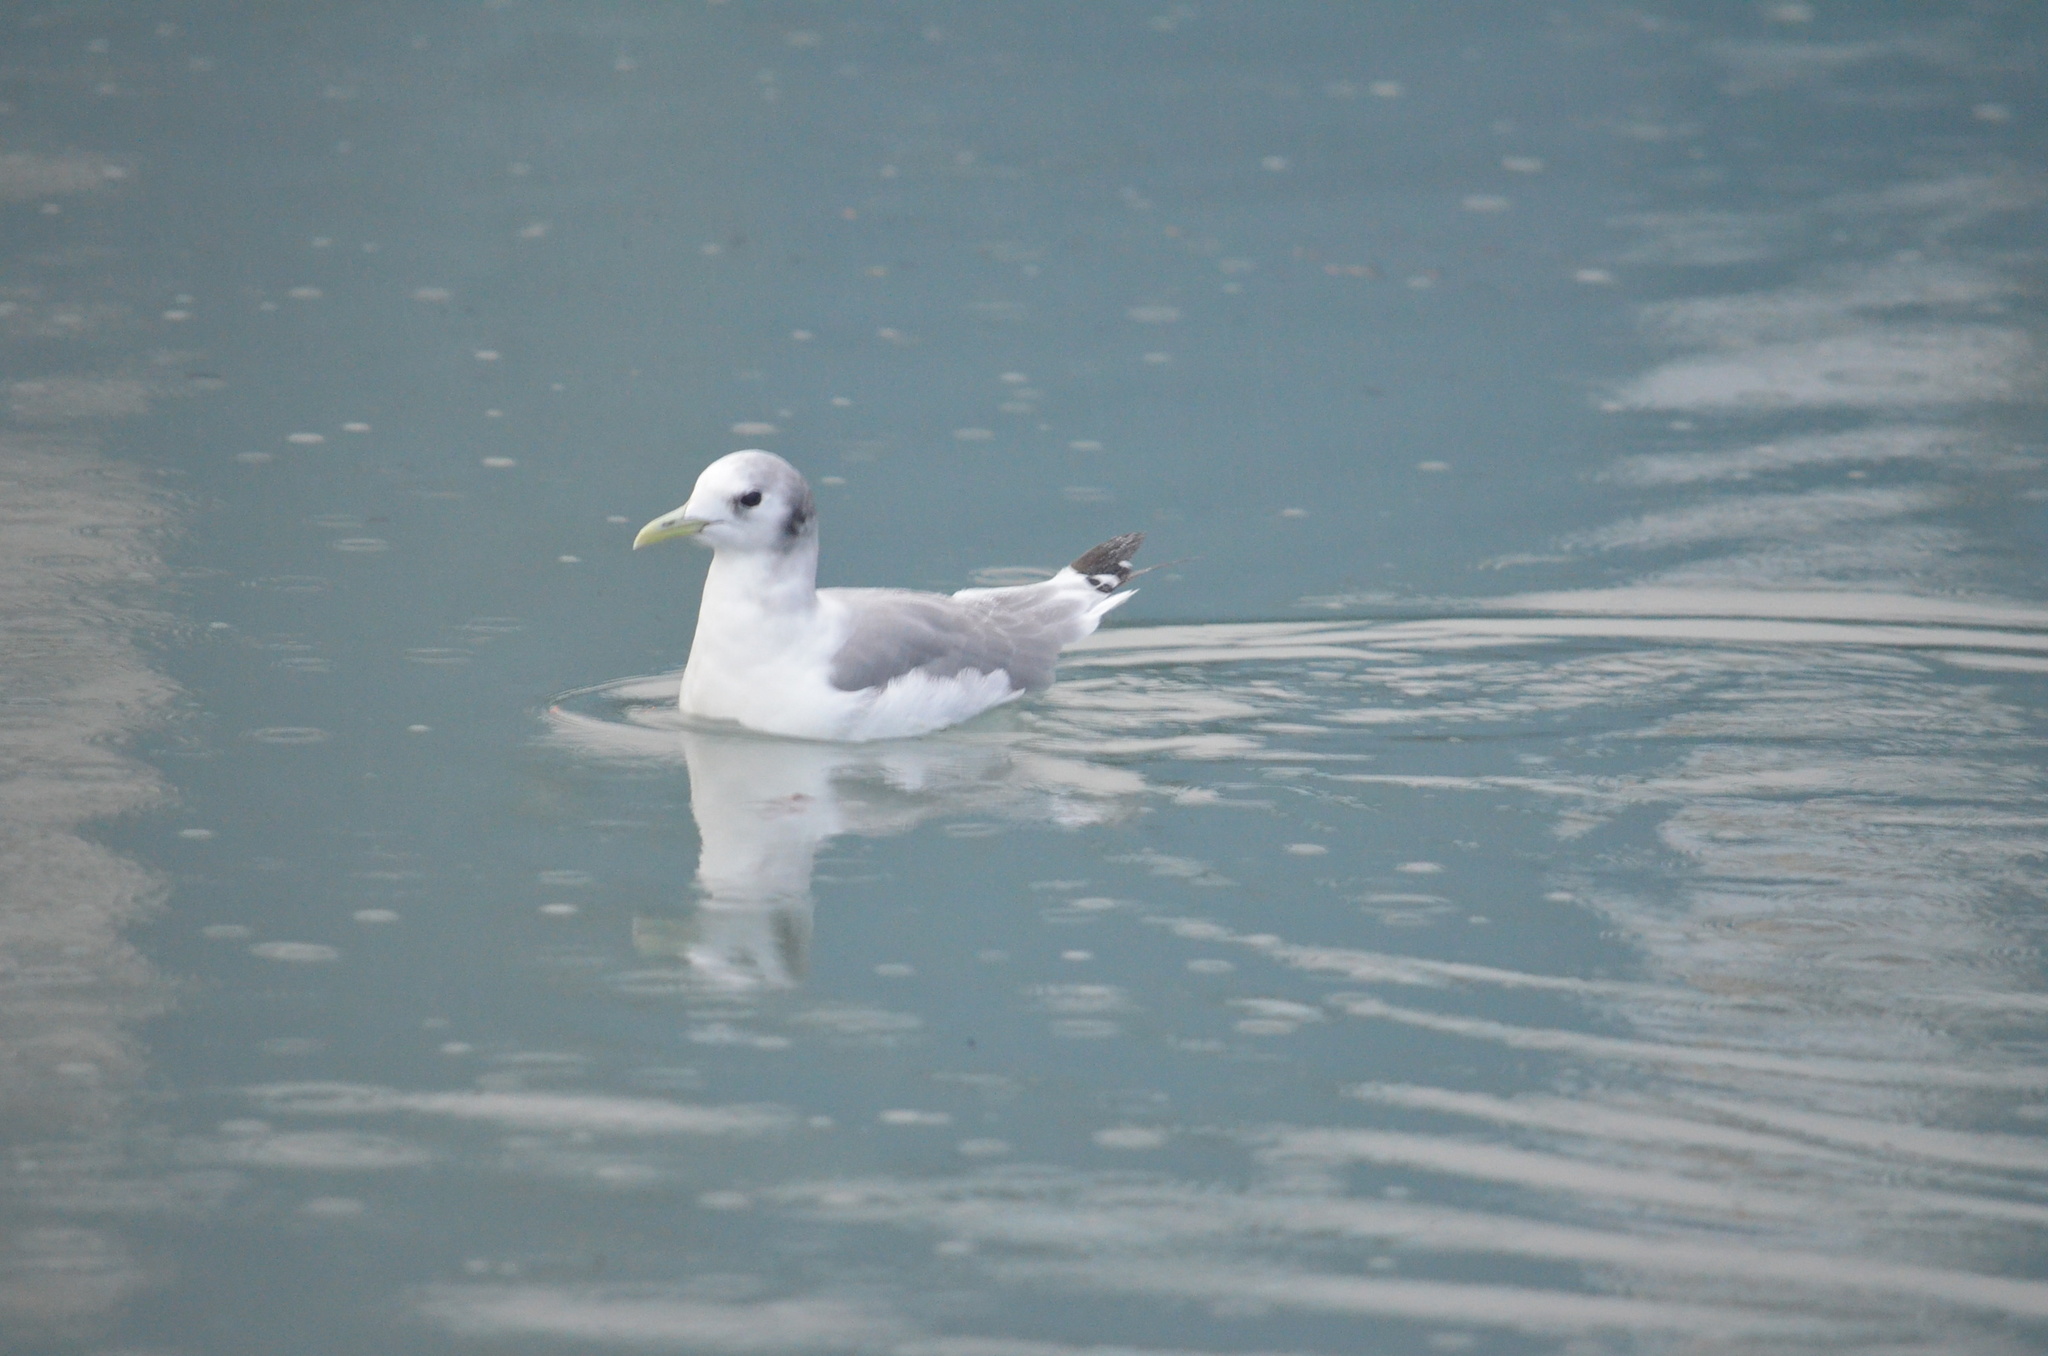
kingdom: Animalia
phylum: Chordata
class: Aves
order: Charadriiformes
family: Laridae
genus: Rissa
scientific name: Rissa tridactyla
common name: Black-legged kittiwake
